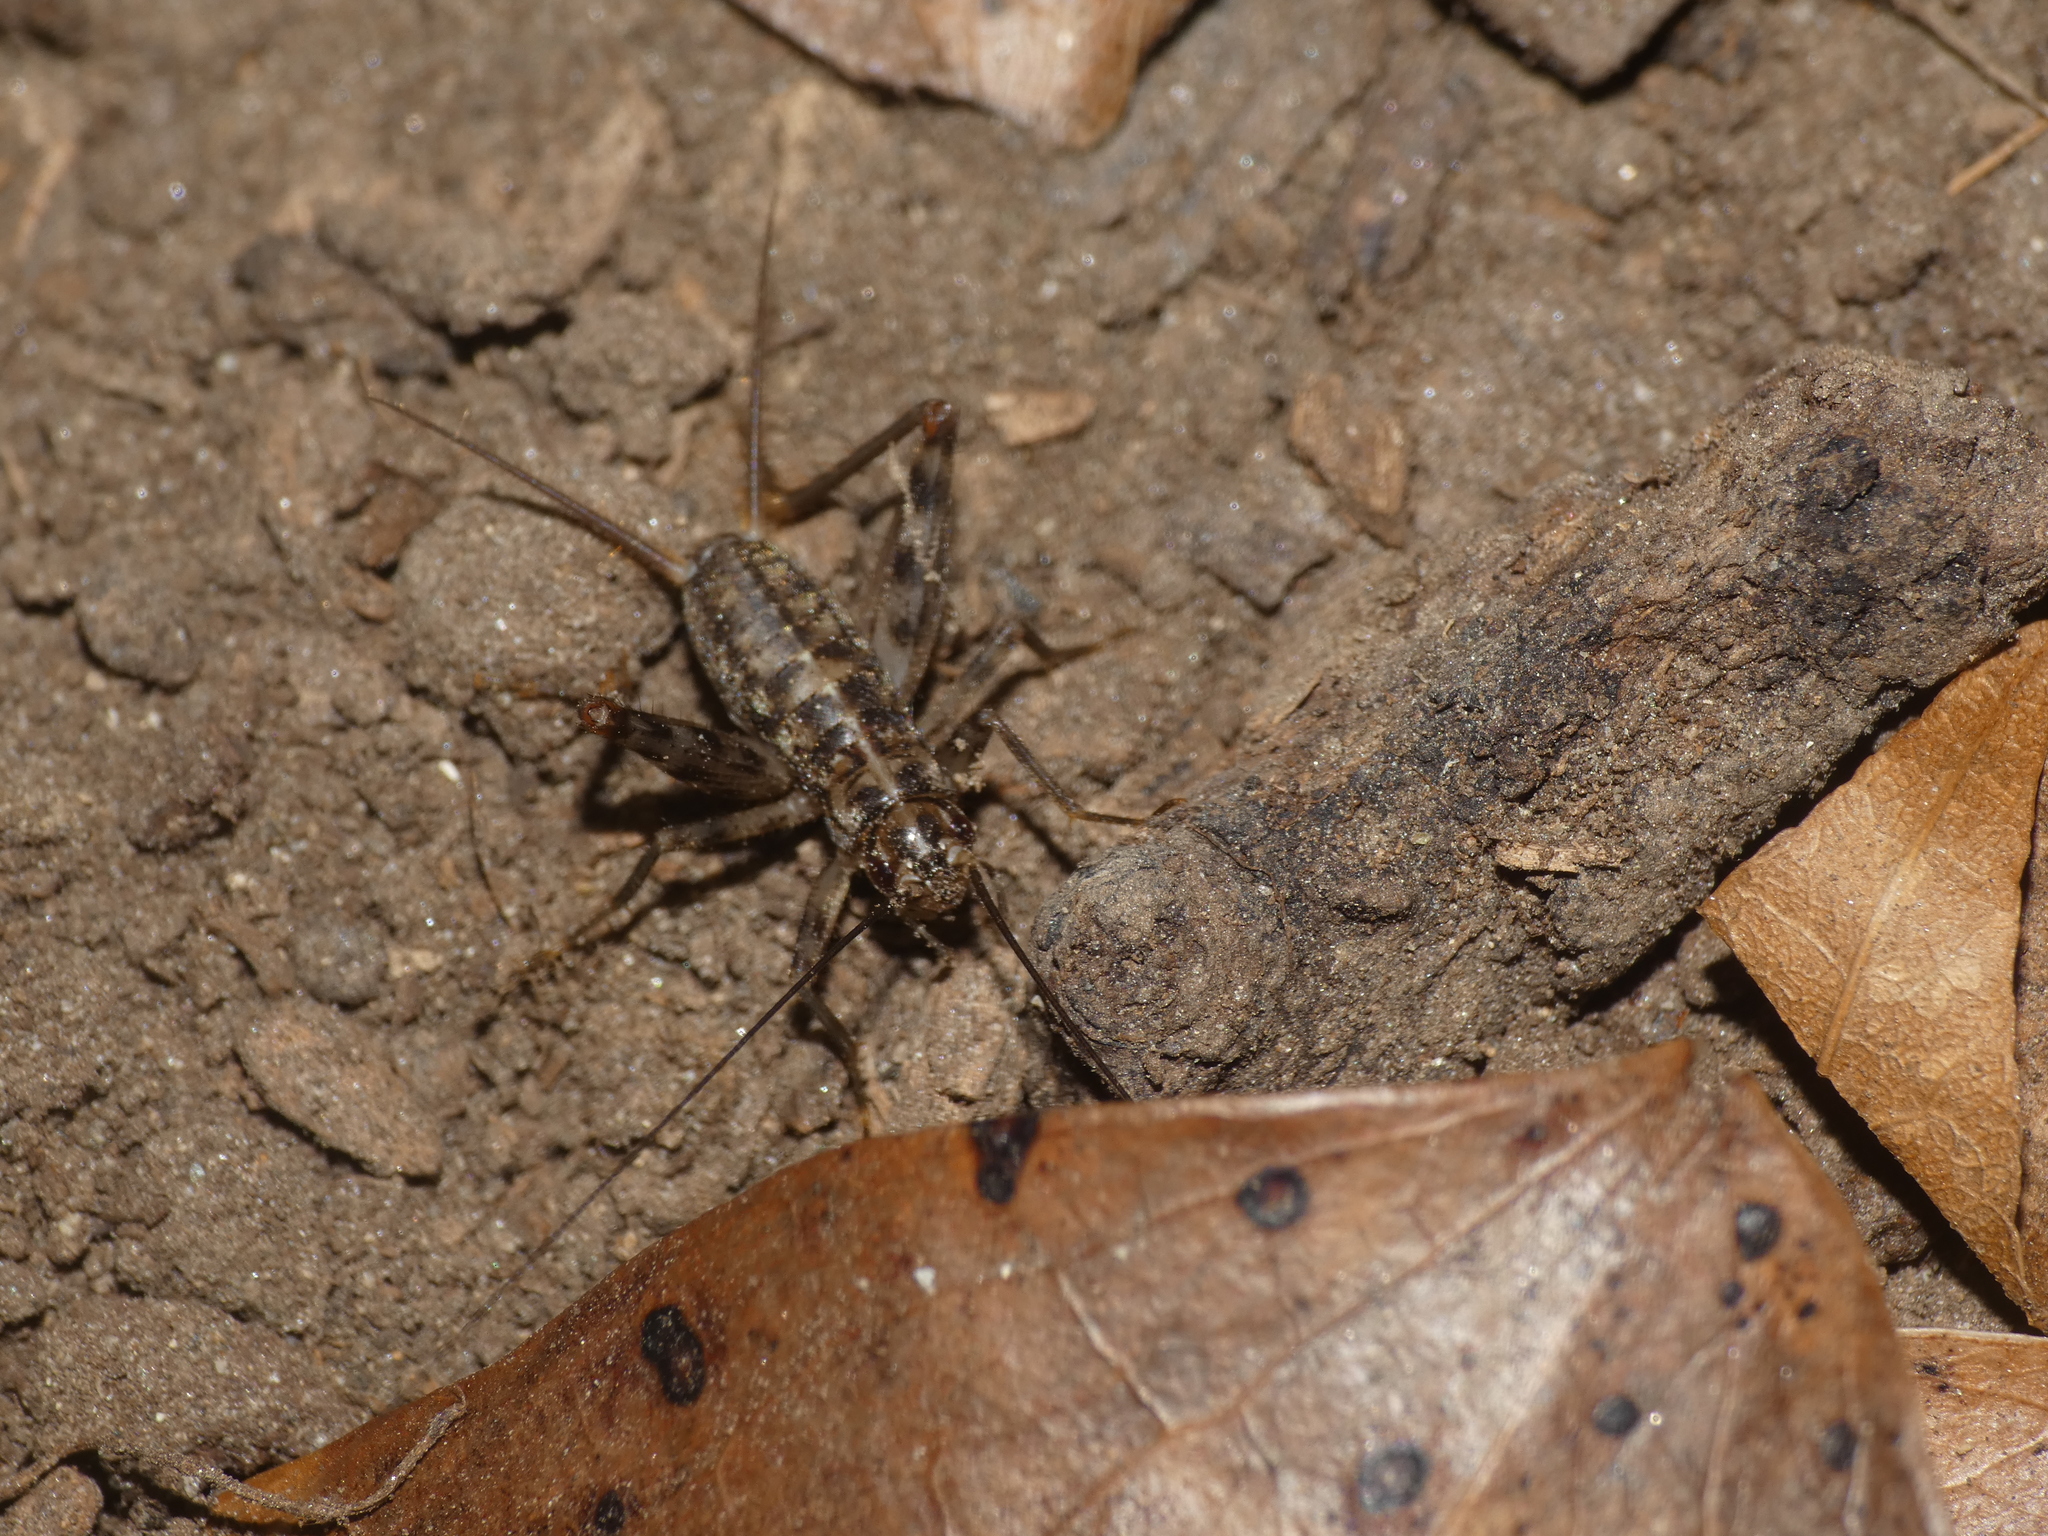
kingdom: Animalia
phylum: Arthropoda
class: Insecta
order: Orthoptera
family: Gryllidae
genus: Gryllomorpha
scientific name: Gryllomorpha dalmatina
